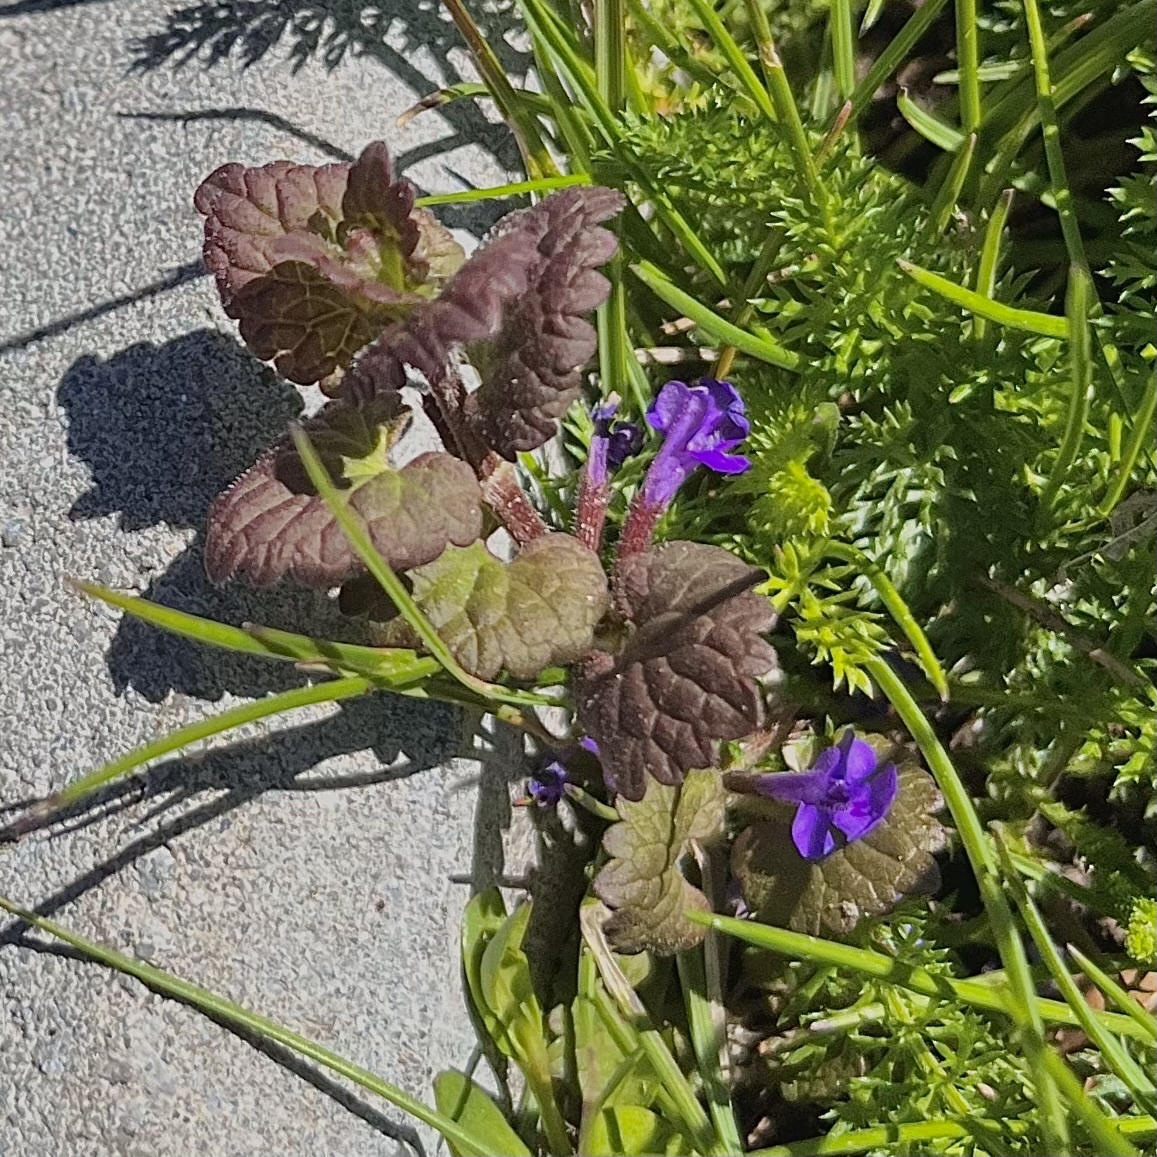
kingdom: Plantae
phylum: Tracheophyta
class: Magnoliopsida
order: Lamiales
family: Lamiaceae
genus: Glechoma
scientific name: Glechoma hederacea
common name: Ground ivy
